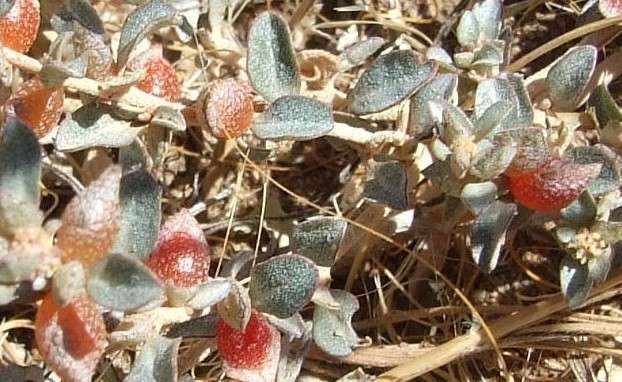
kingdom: Plantae
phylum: Tracheophyta
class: Magnoliopsida
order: Caryophyllales
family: Amaranthaceae
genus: Atriplex
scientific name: Atriplex semibaccata
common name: Australian saltbush
